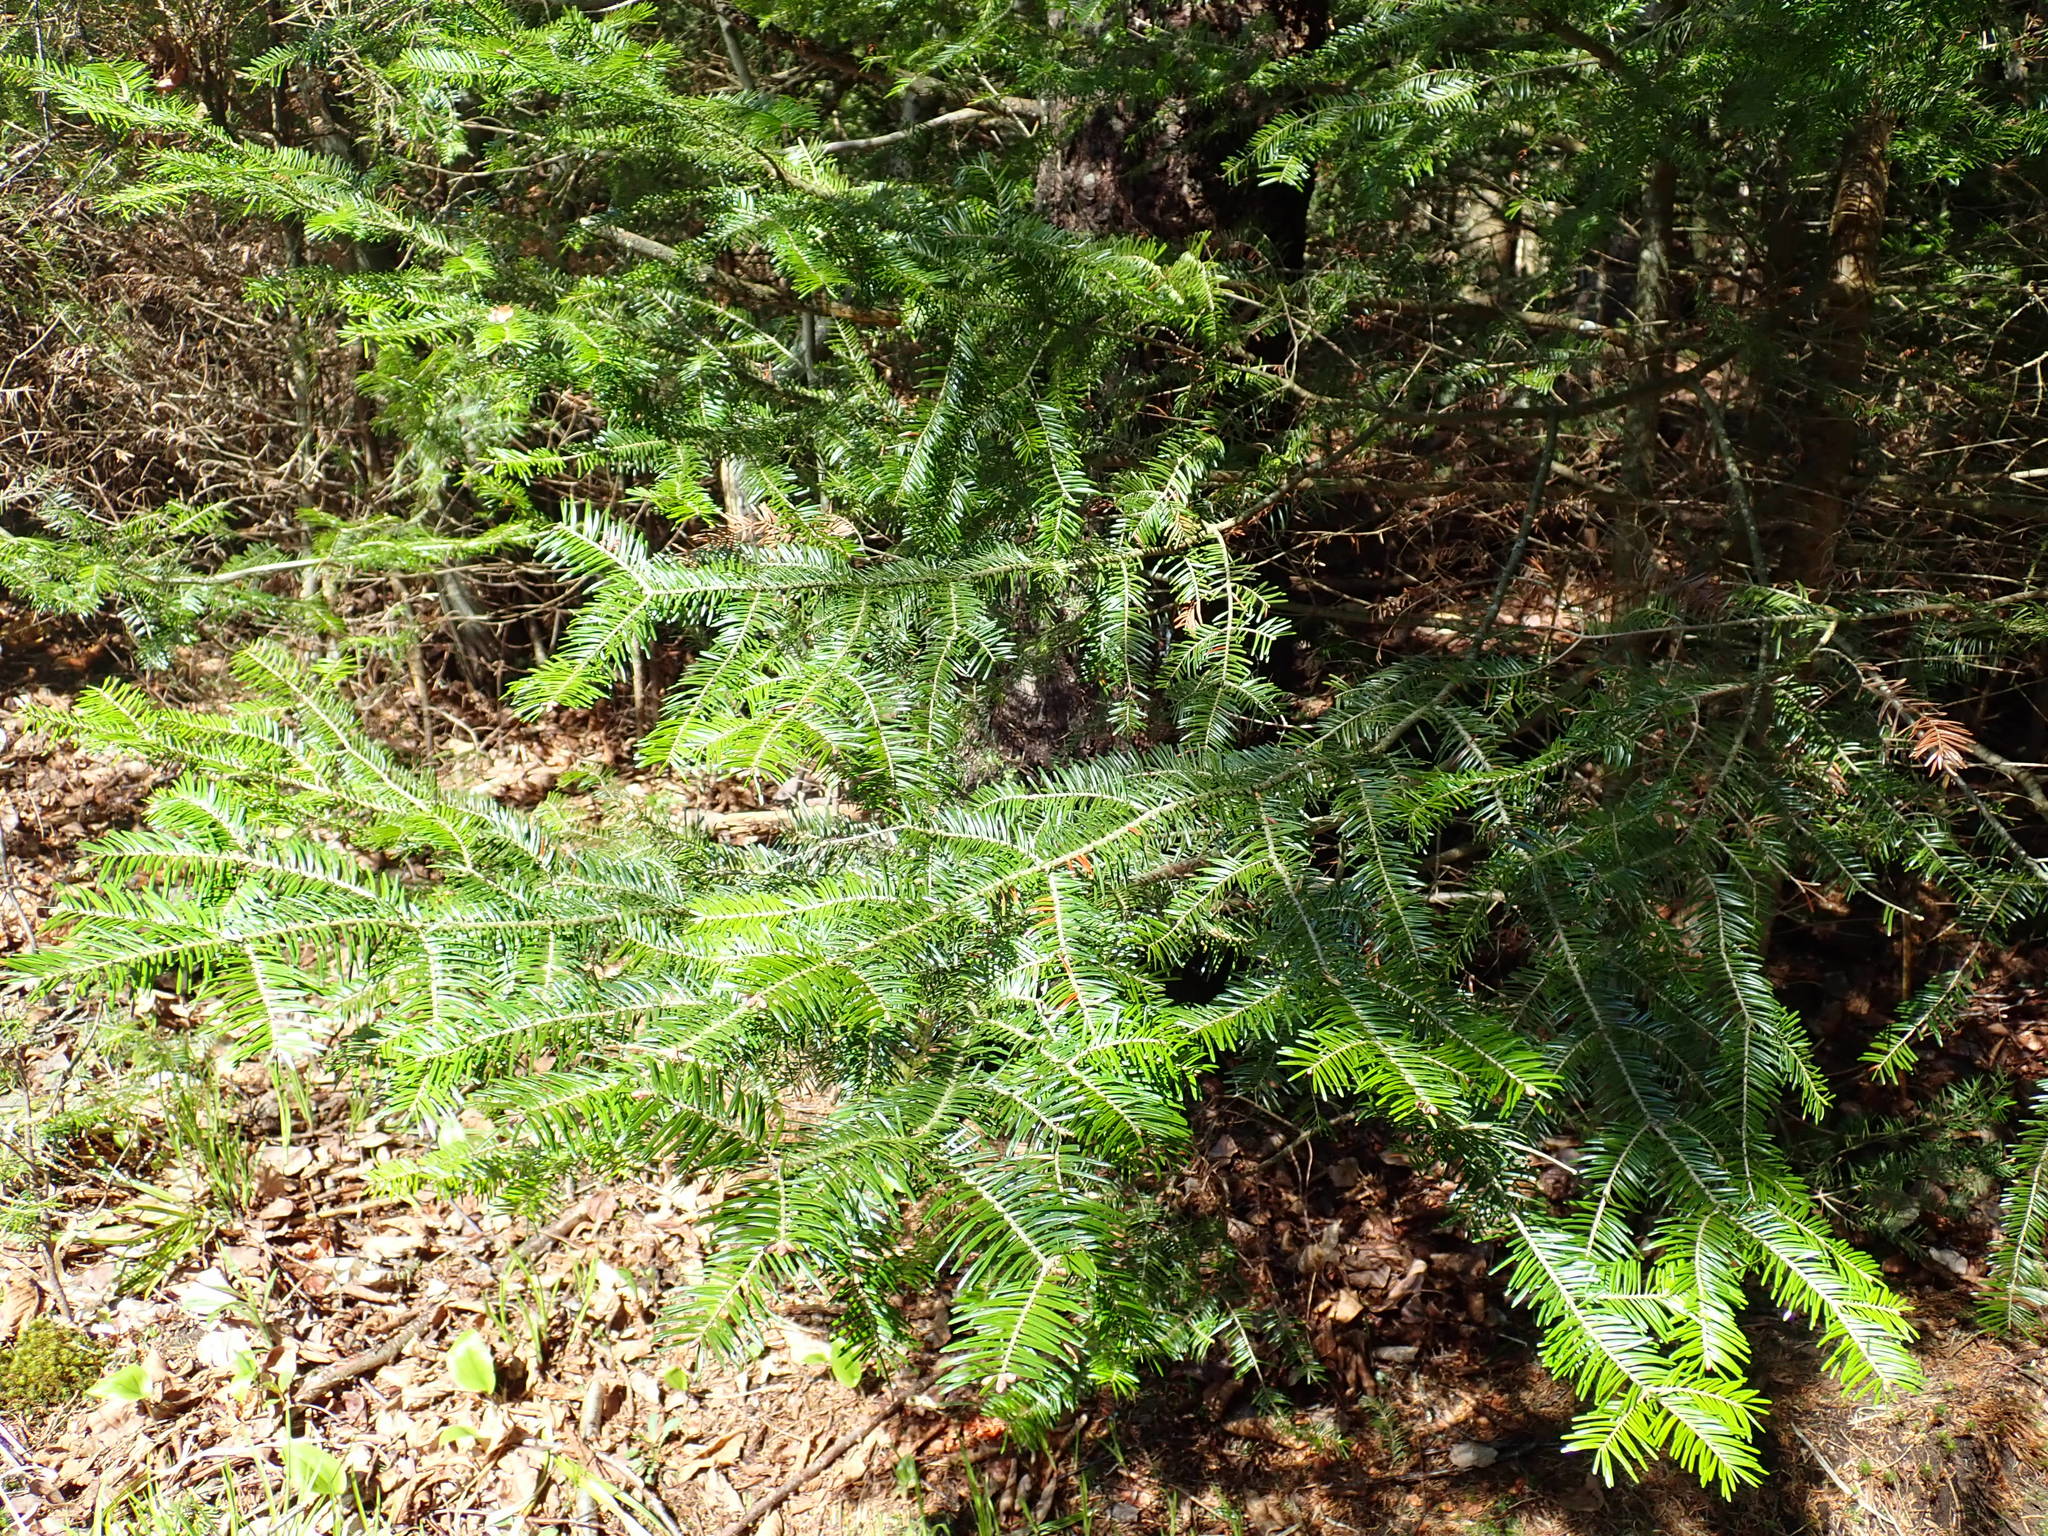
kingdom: Plantae
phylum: Tracheophyta
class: Pinopsida
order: Pinales
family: Pinaceae
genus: Abies
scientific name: Abies balsamea
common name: Balsam fir
